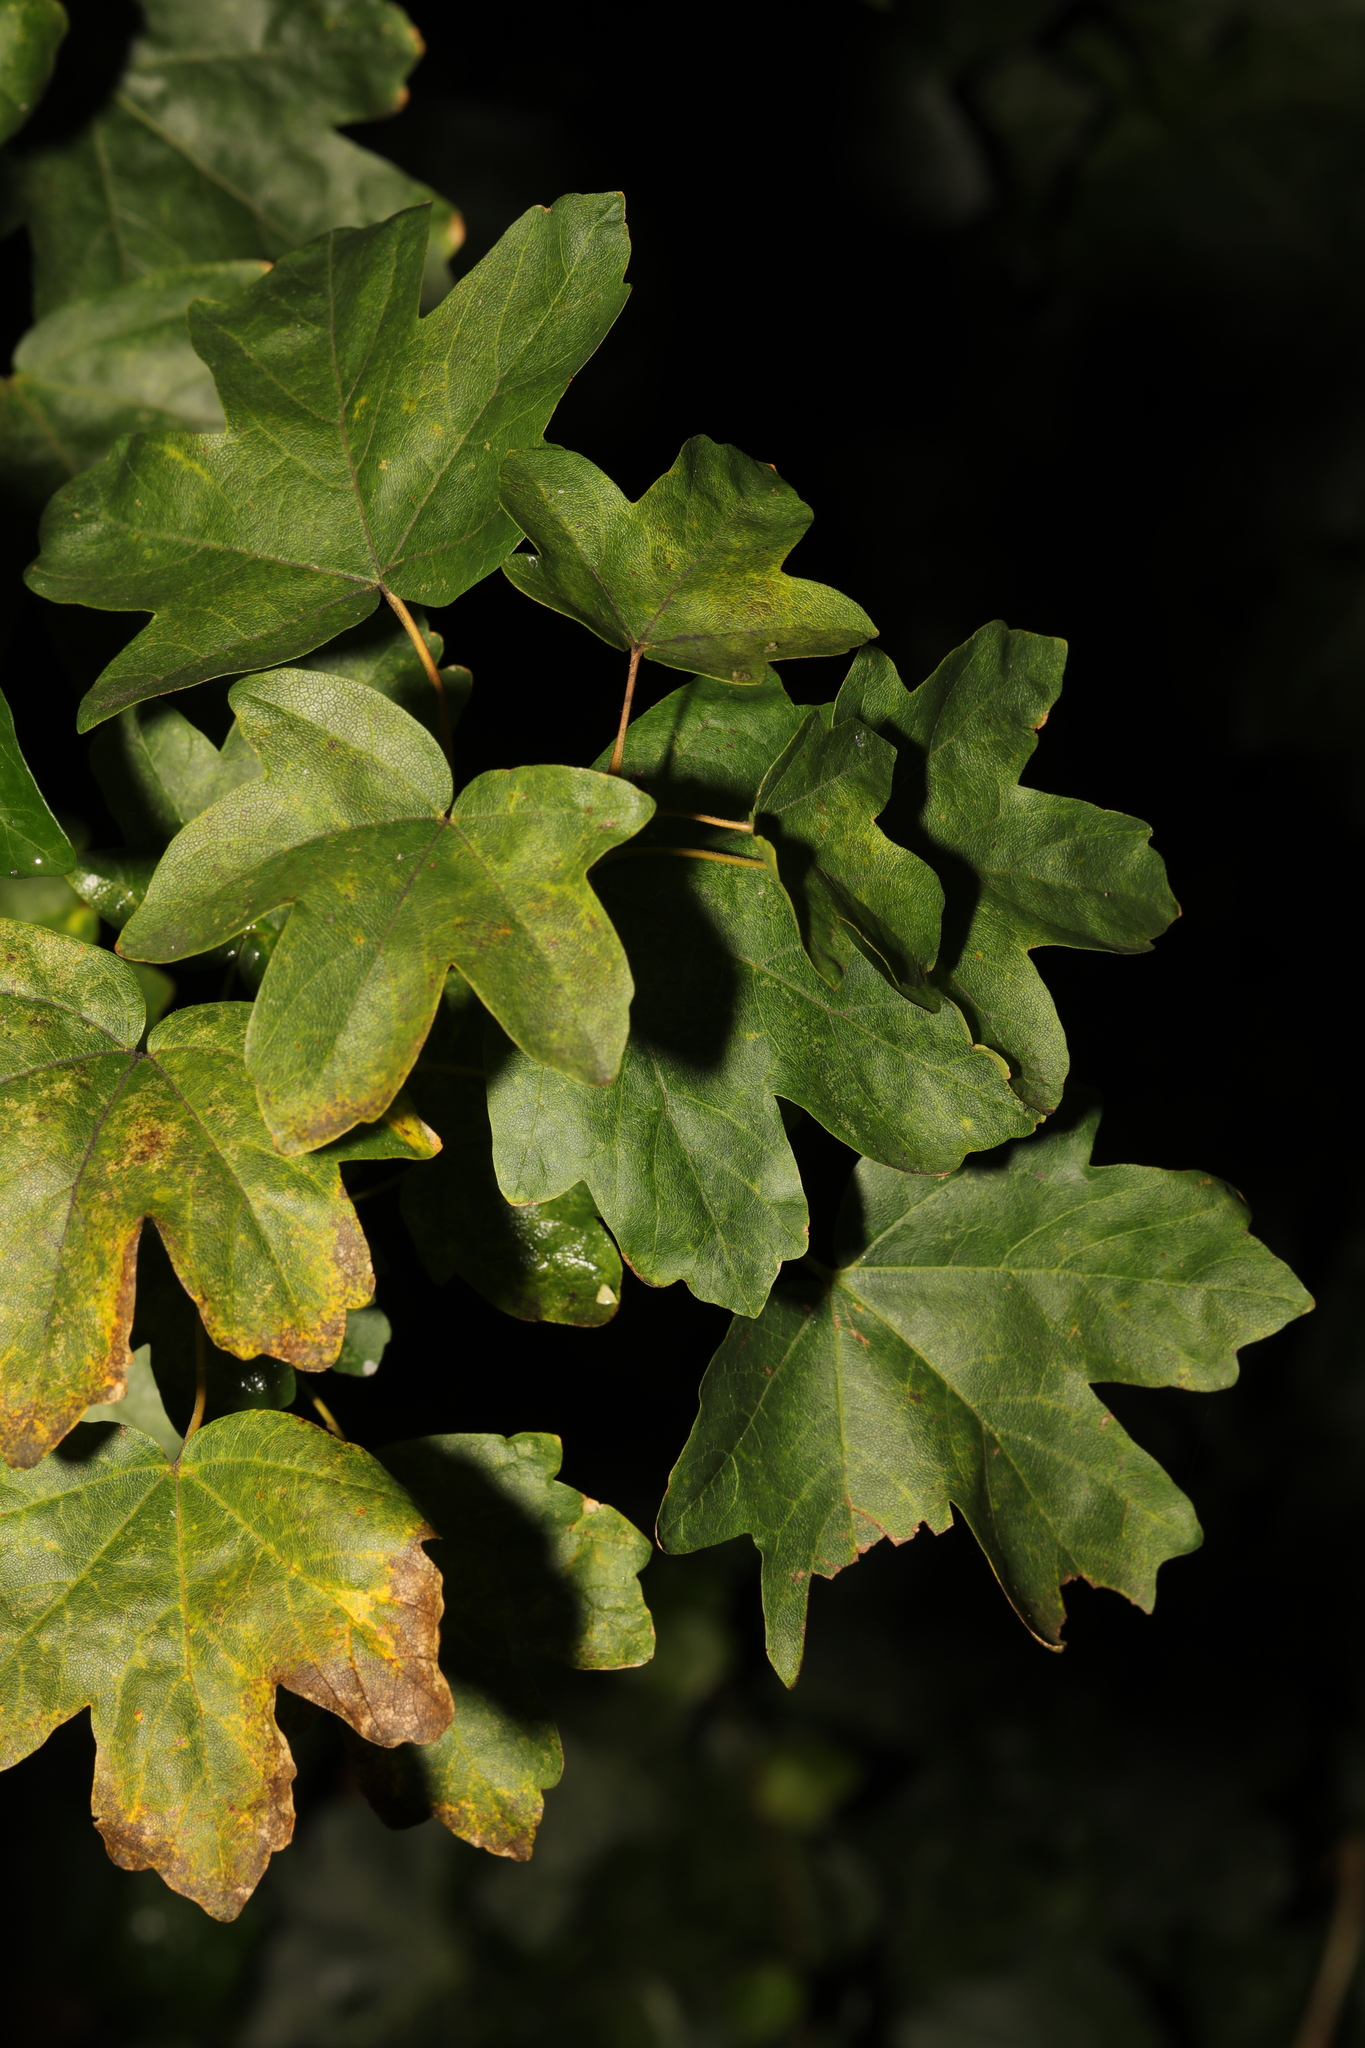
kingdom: Plantae
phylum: Tracheophyta
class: Magnoliopsida
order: Sapindales
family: Sapindaceae
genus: Acer
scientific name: Acer campestre
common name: Field maple
